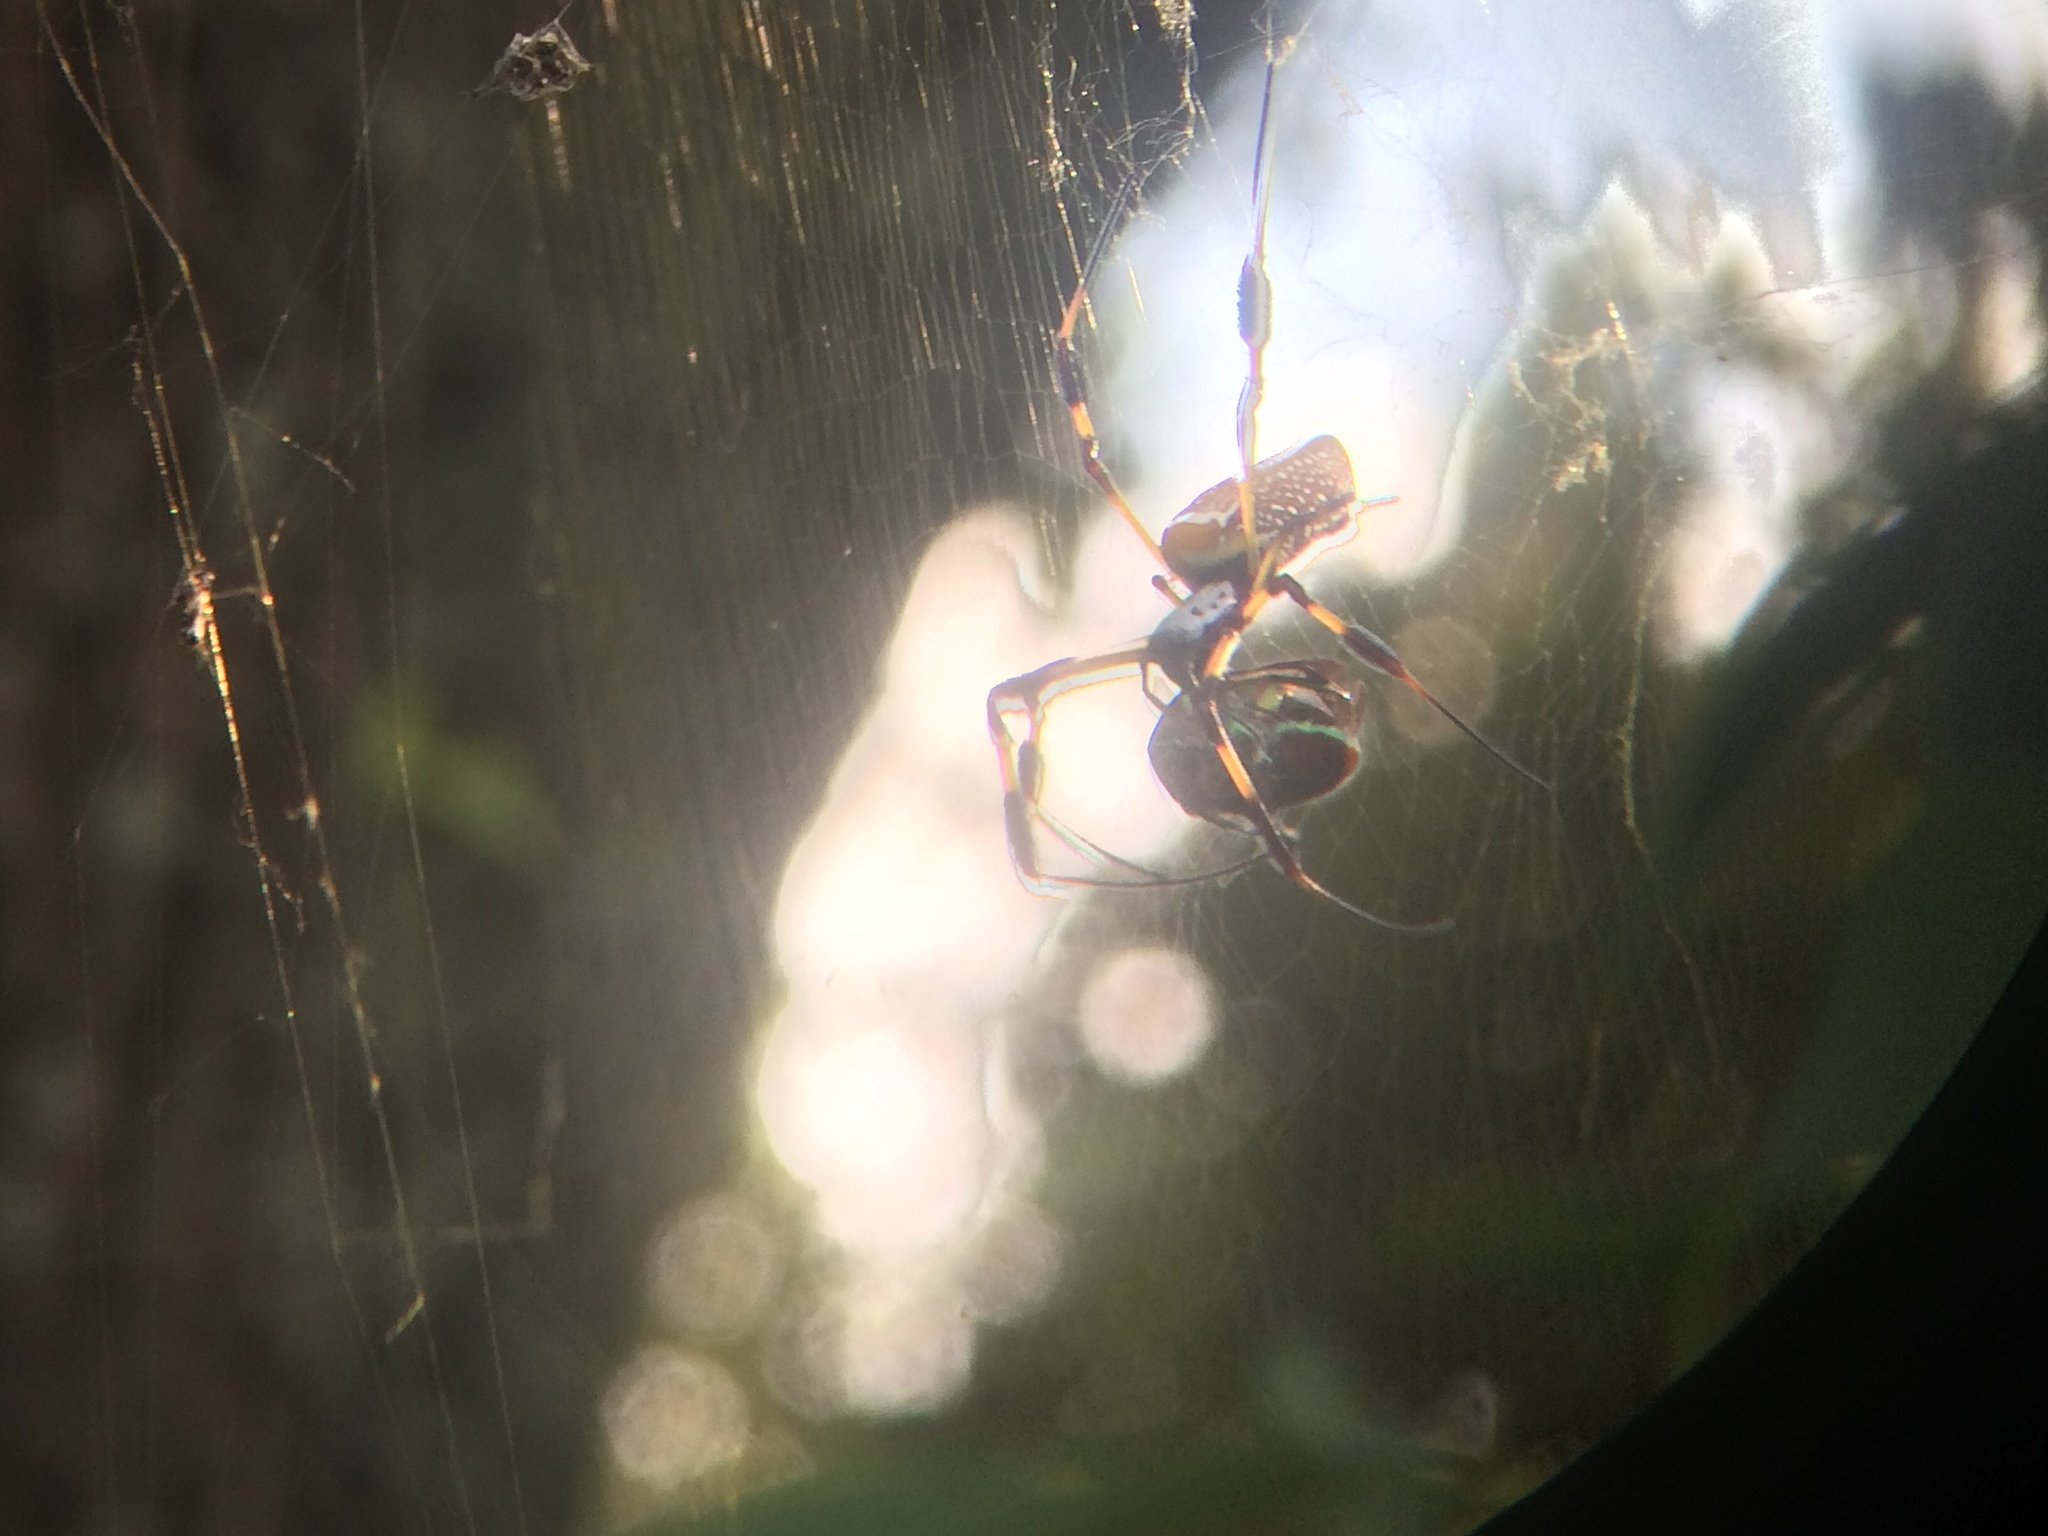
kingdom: Animalia
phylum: Arthropoda
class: Arachnida
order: Araneae
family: Araneidae
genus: Trichonephila
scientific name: Trichonephila clavipes
